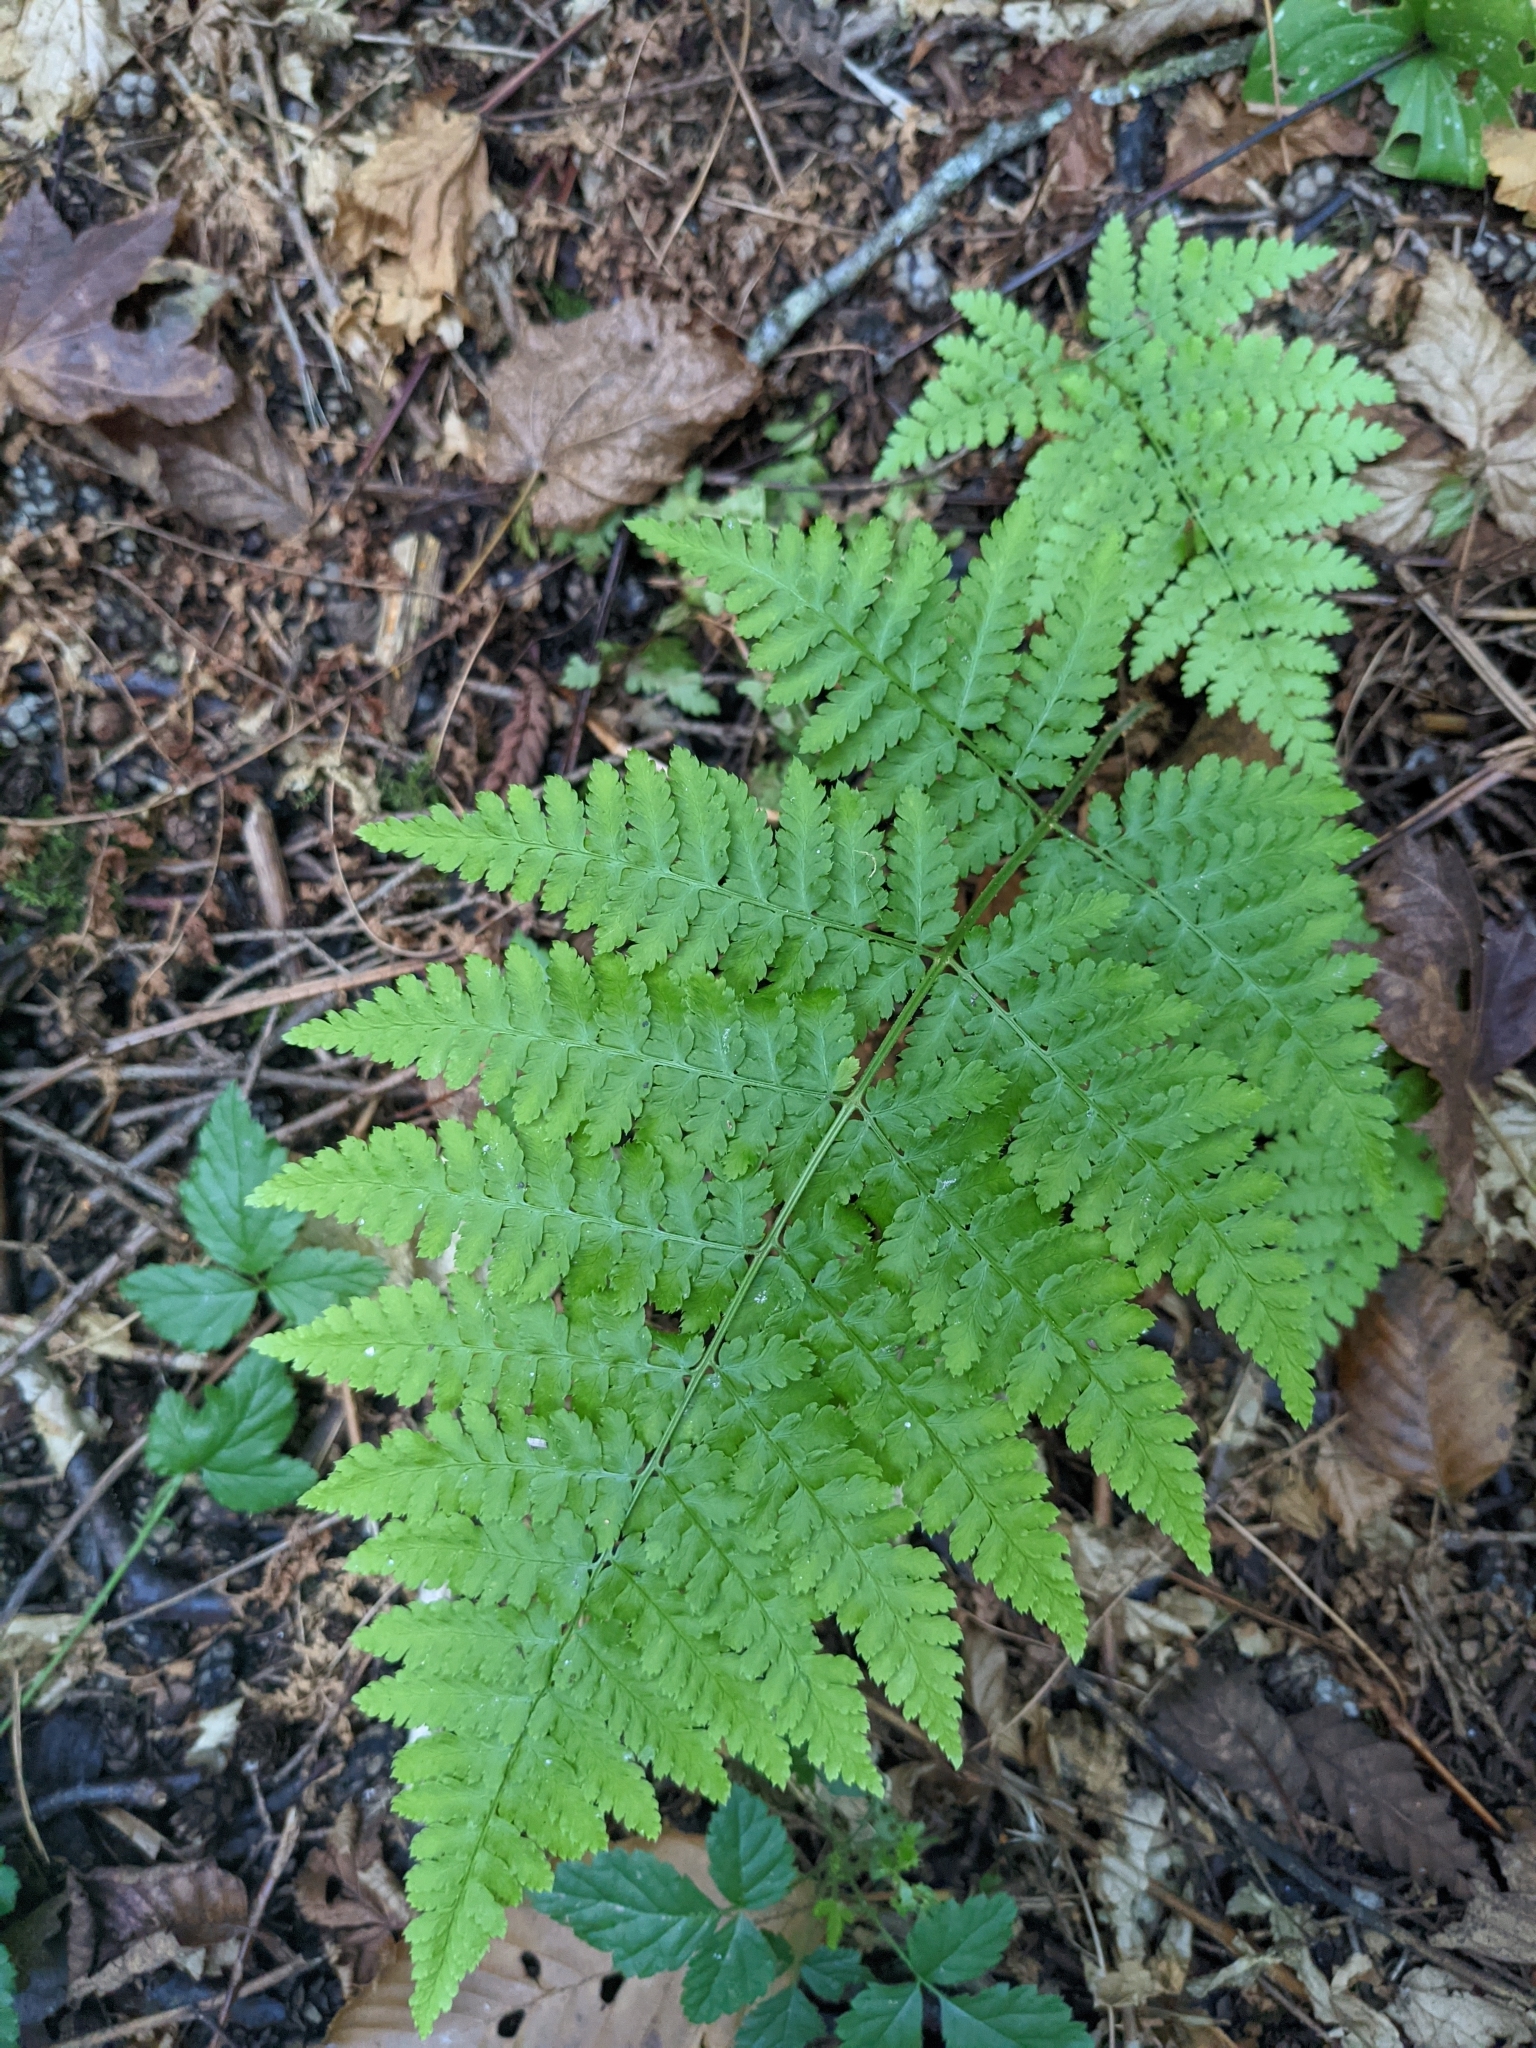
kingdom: Plantae
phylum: Tracheophyta
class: Polypodiopsida
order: Polypodiales
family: Dryopteridaceae
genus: Dryopteris
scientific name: Dryopteris expansa
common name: Northern buckler fern
